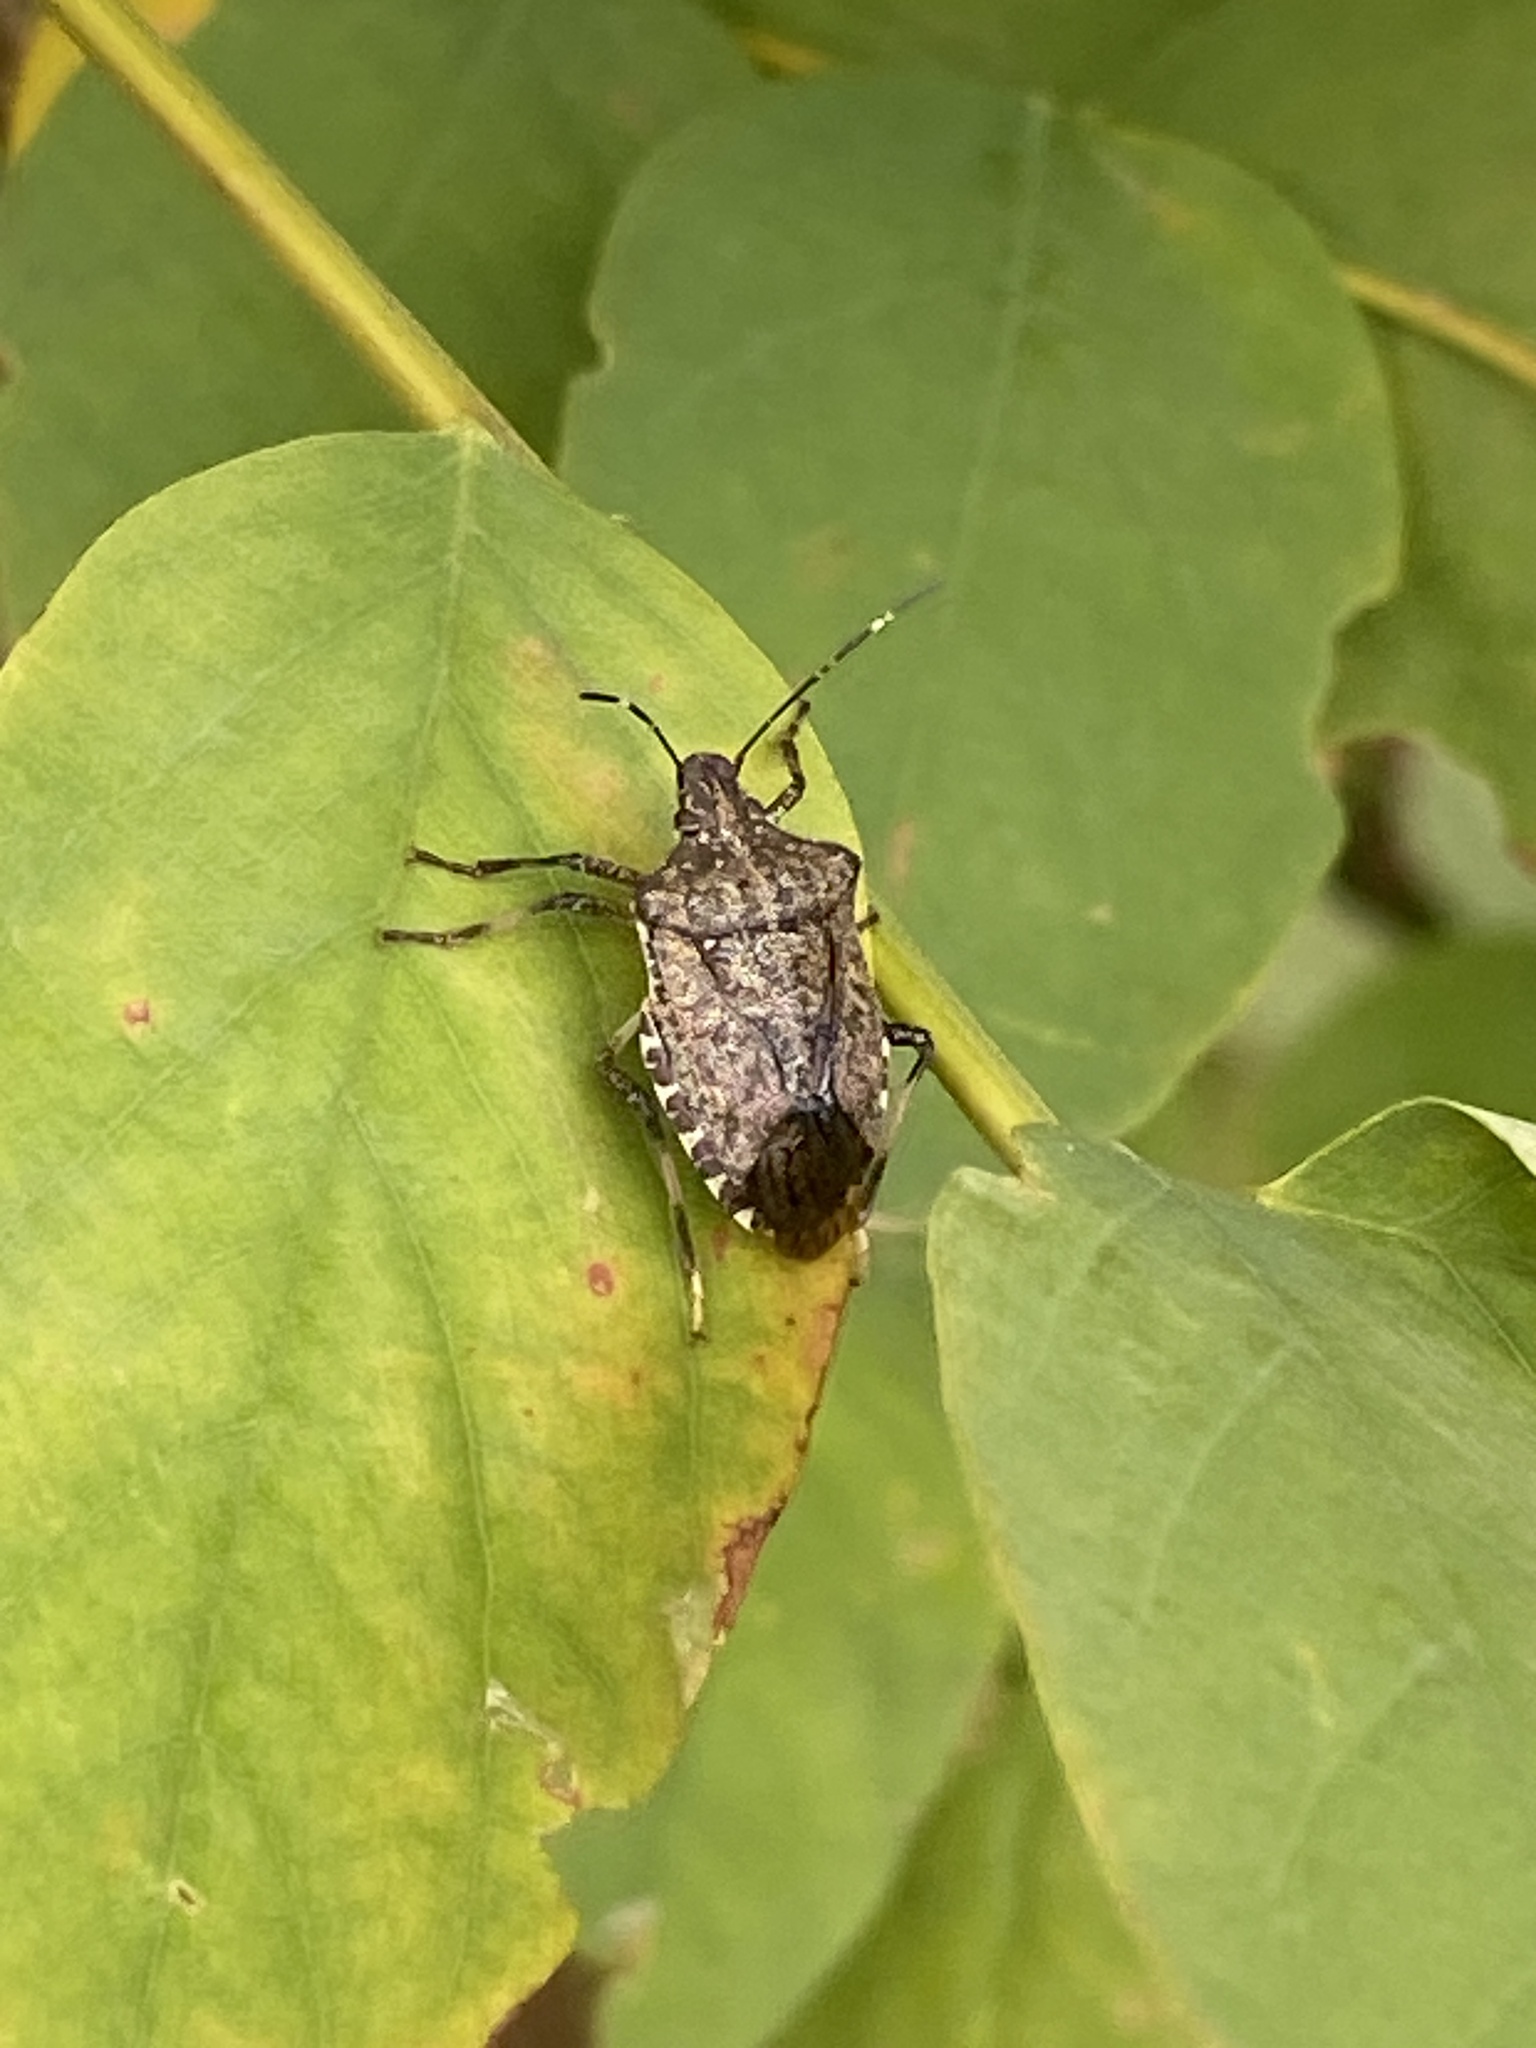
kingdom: Animalia
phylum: Arthropoda
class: Insecta
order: Hemiptera
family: Pentatomidae
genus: Halyomorpha
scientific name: Halyomorpha halys
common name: Brown marmorated stink bug
